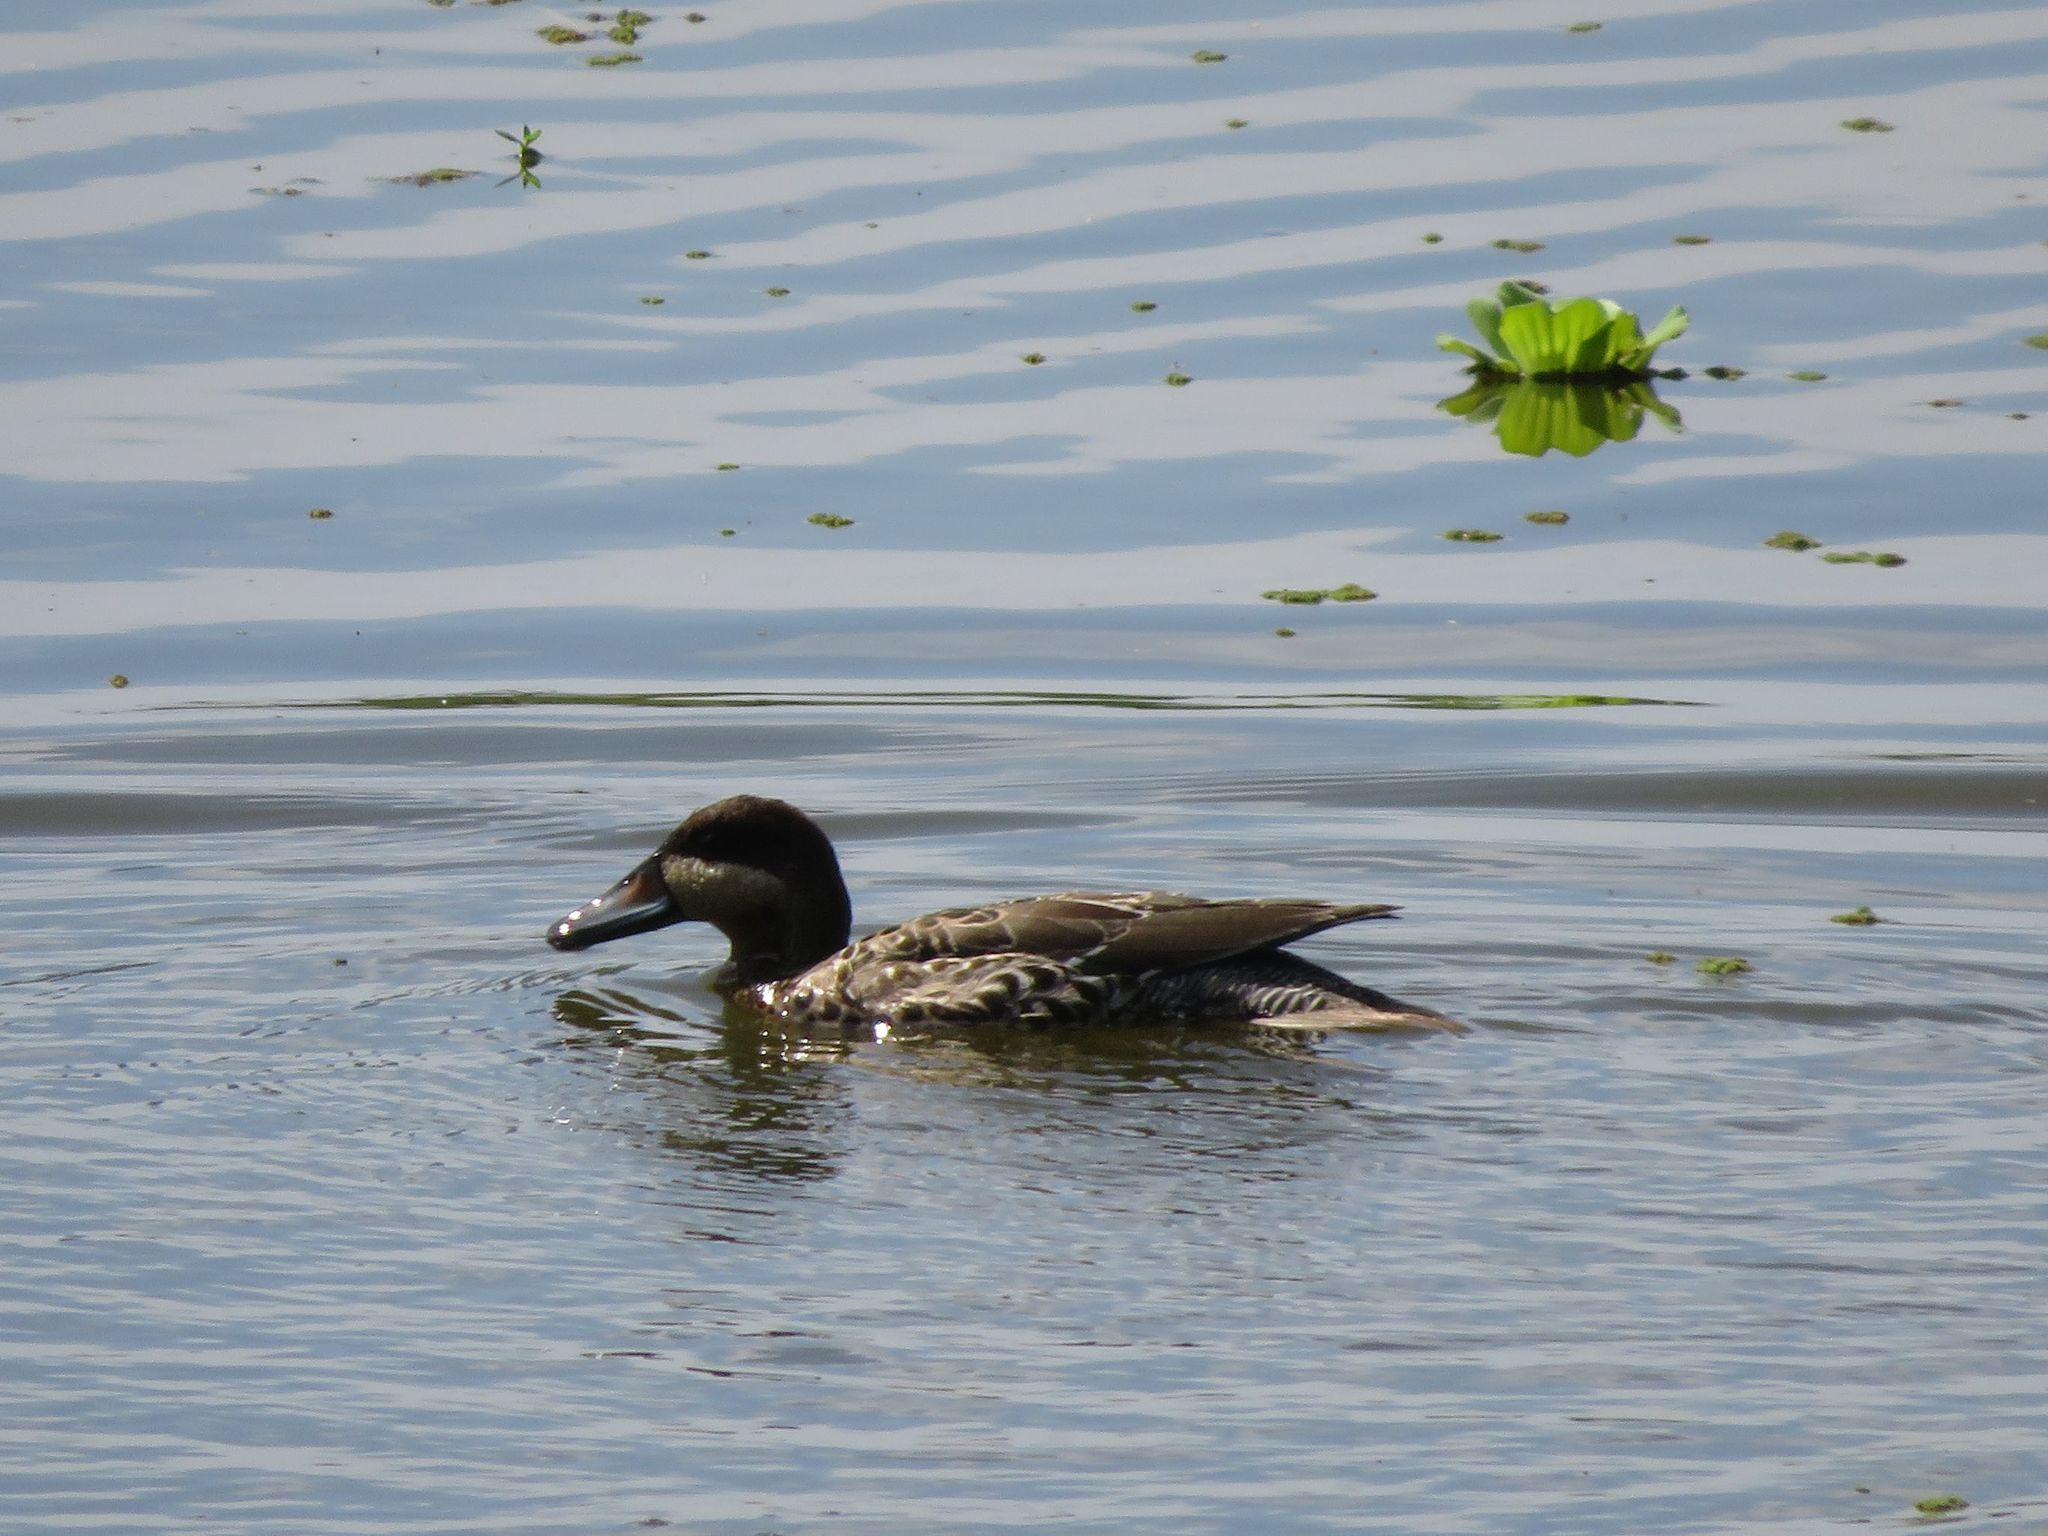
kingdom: Animalia
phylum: Chordata
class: Aves
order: Anseriformes
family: Anatidae
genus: Spatula
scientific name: Spatula versicolor
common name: Silver teal
